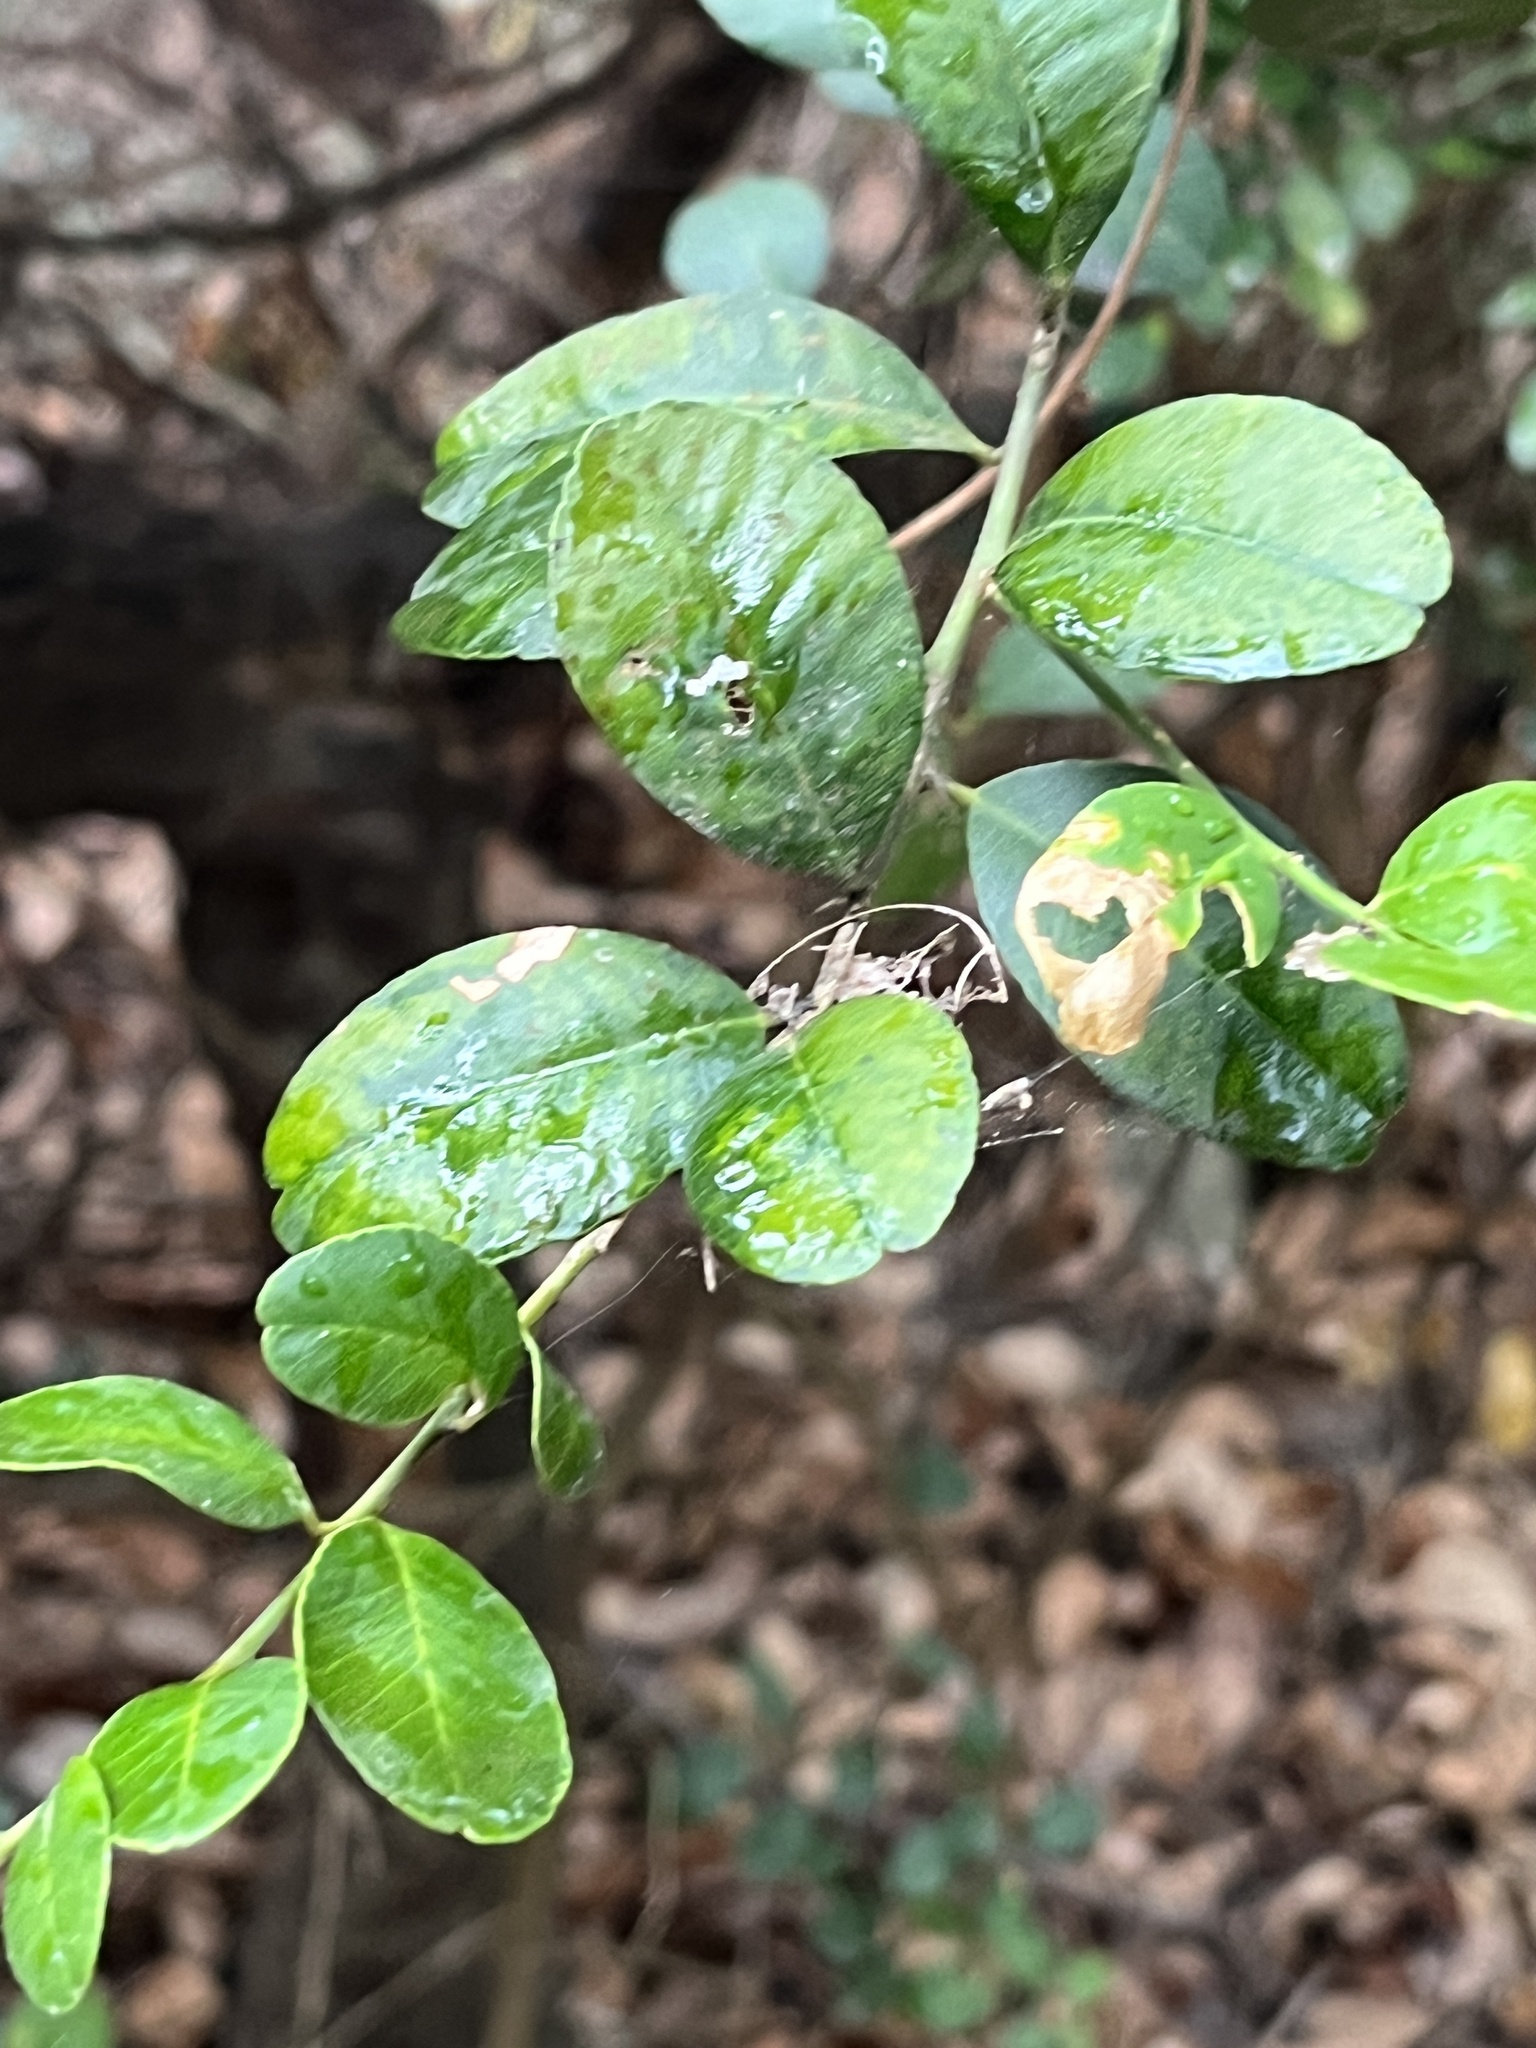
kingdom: Plantae
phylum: Tracheophyta
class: Magnoliopsida
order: Sapindales
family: Rutaceae
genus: Atalantia
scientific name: Atalantia buxifolia
